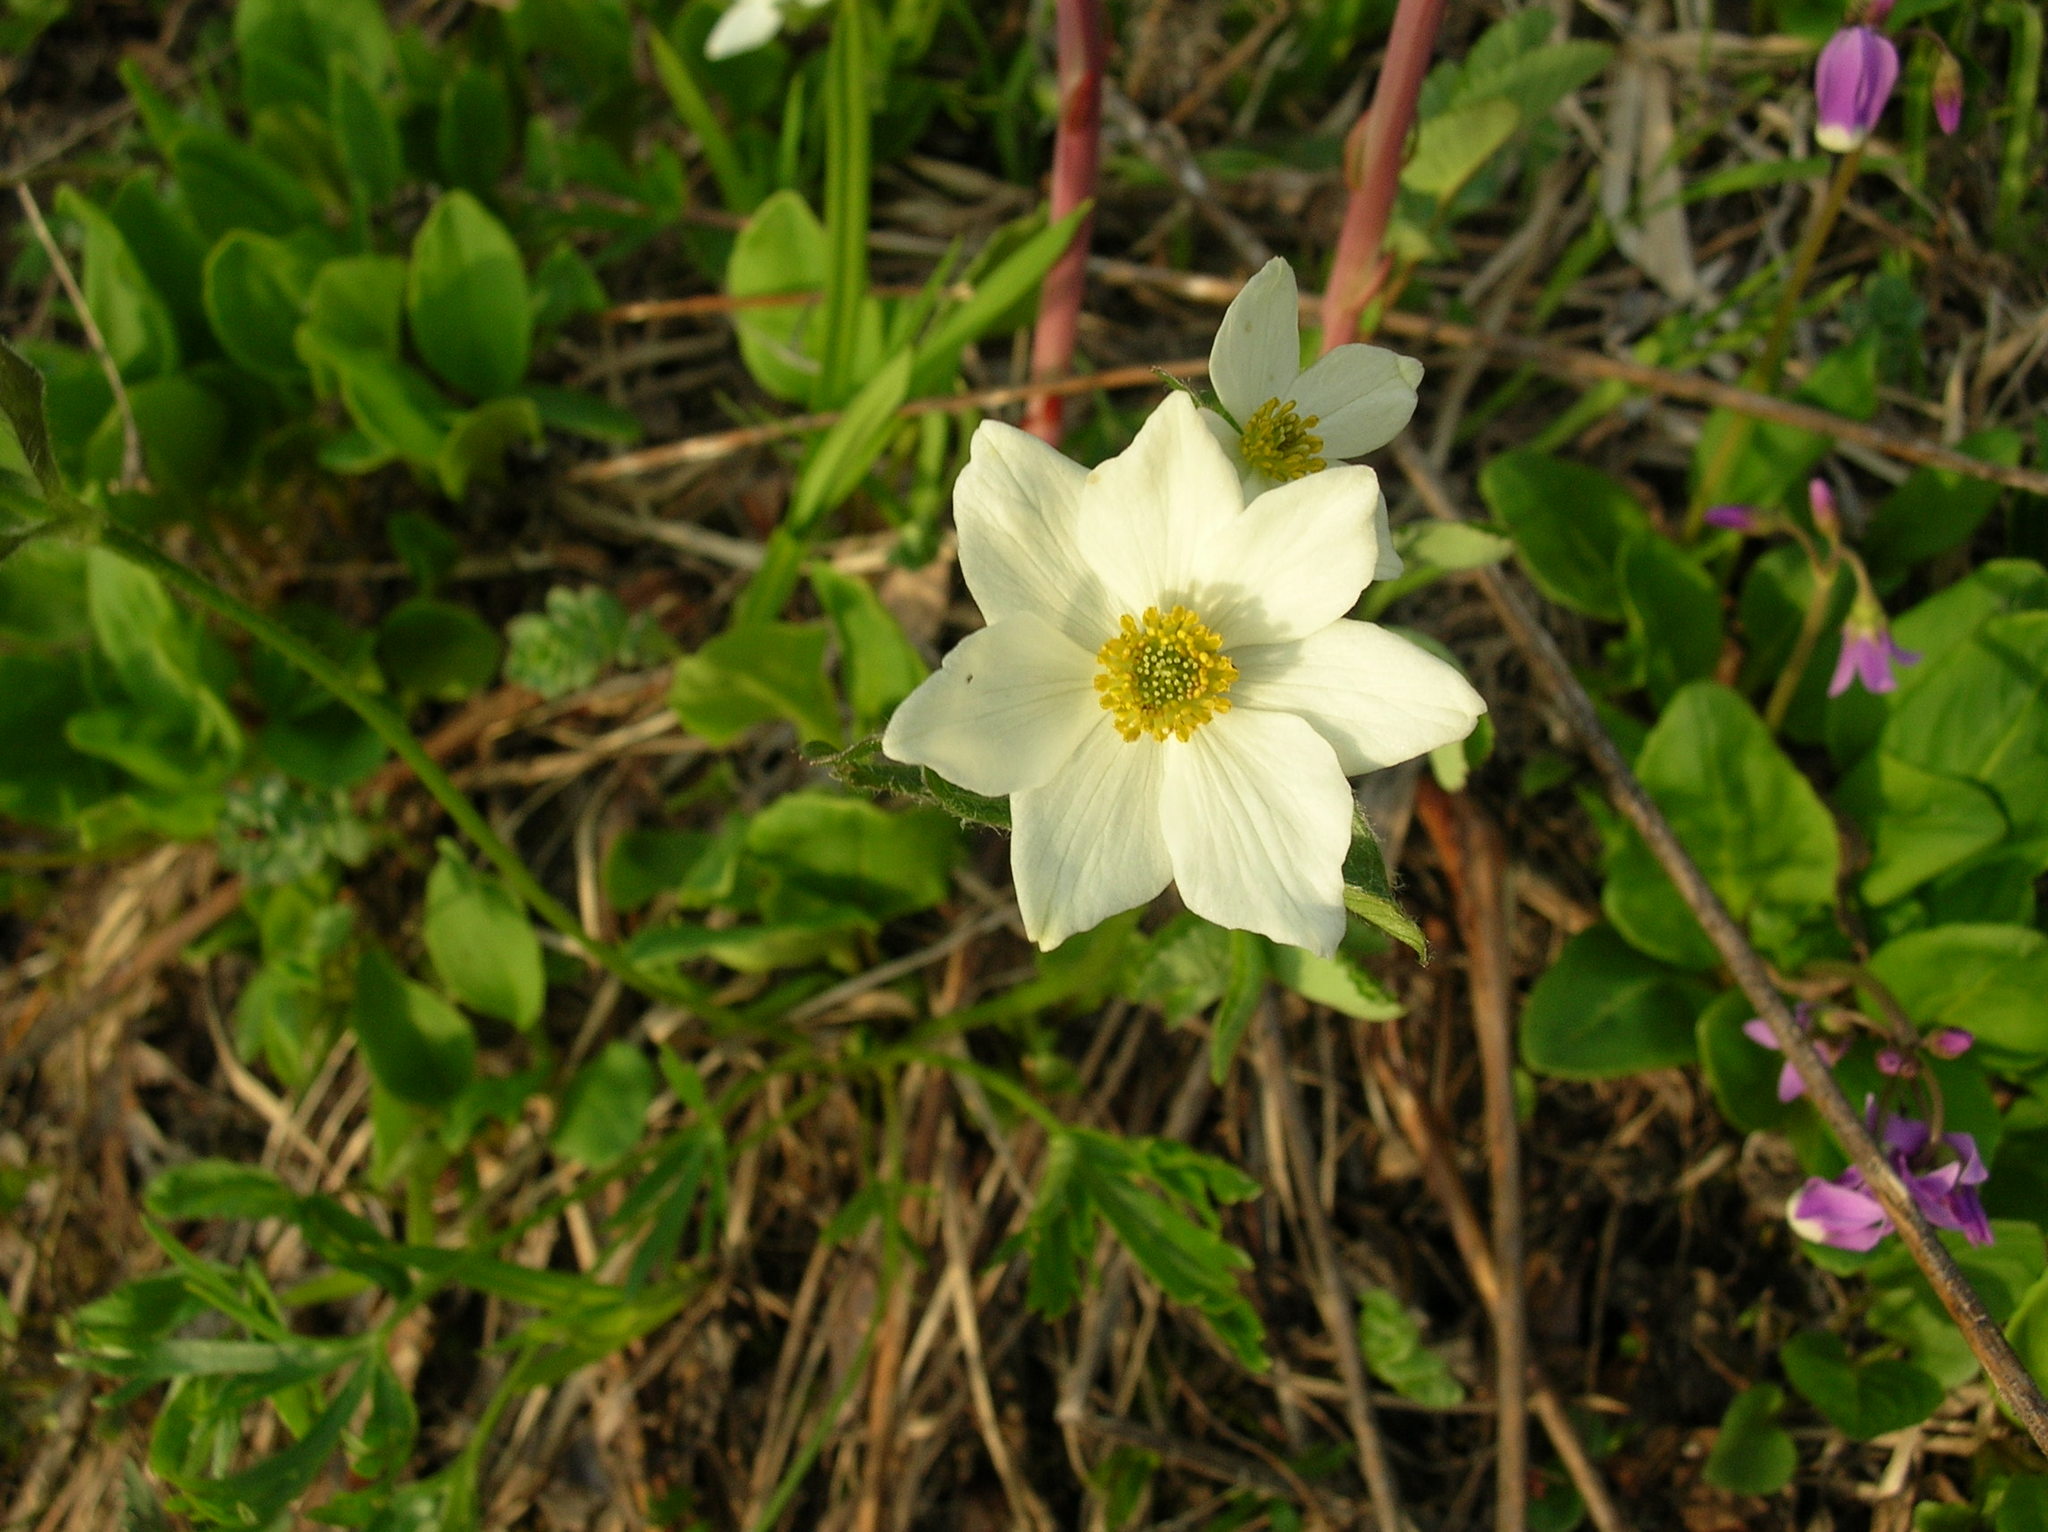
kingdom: Plantae
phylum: Tracheophyta
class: Magnoliopsida
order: Ranunculales
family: Ranunculaceae
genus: Anemonastrum
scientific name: Anemonastrum narcissiflorum
